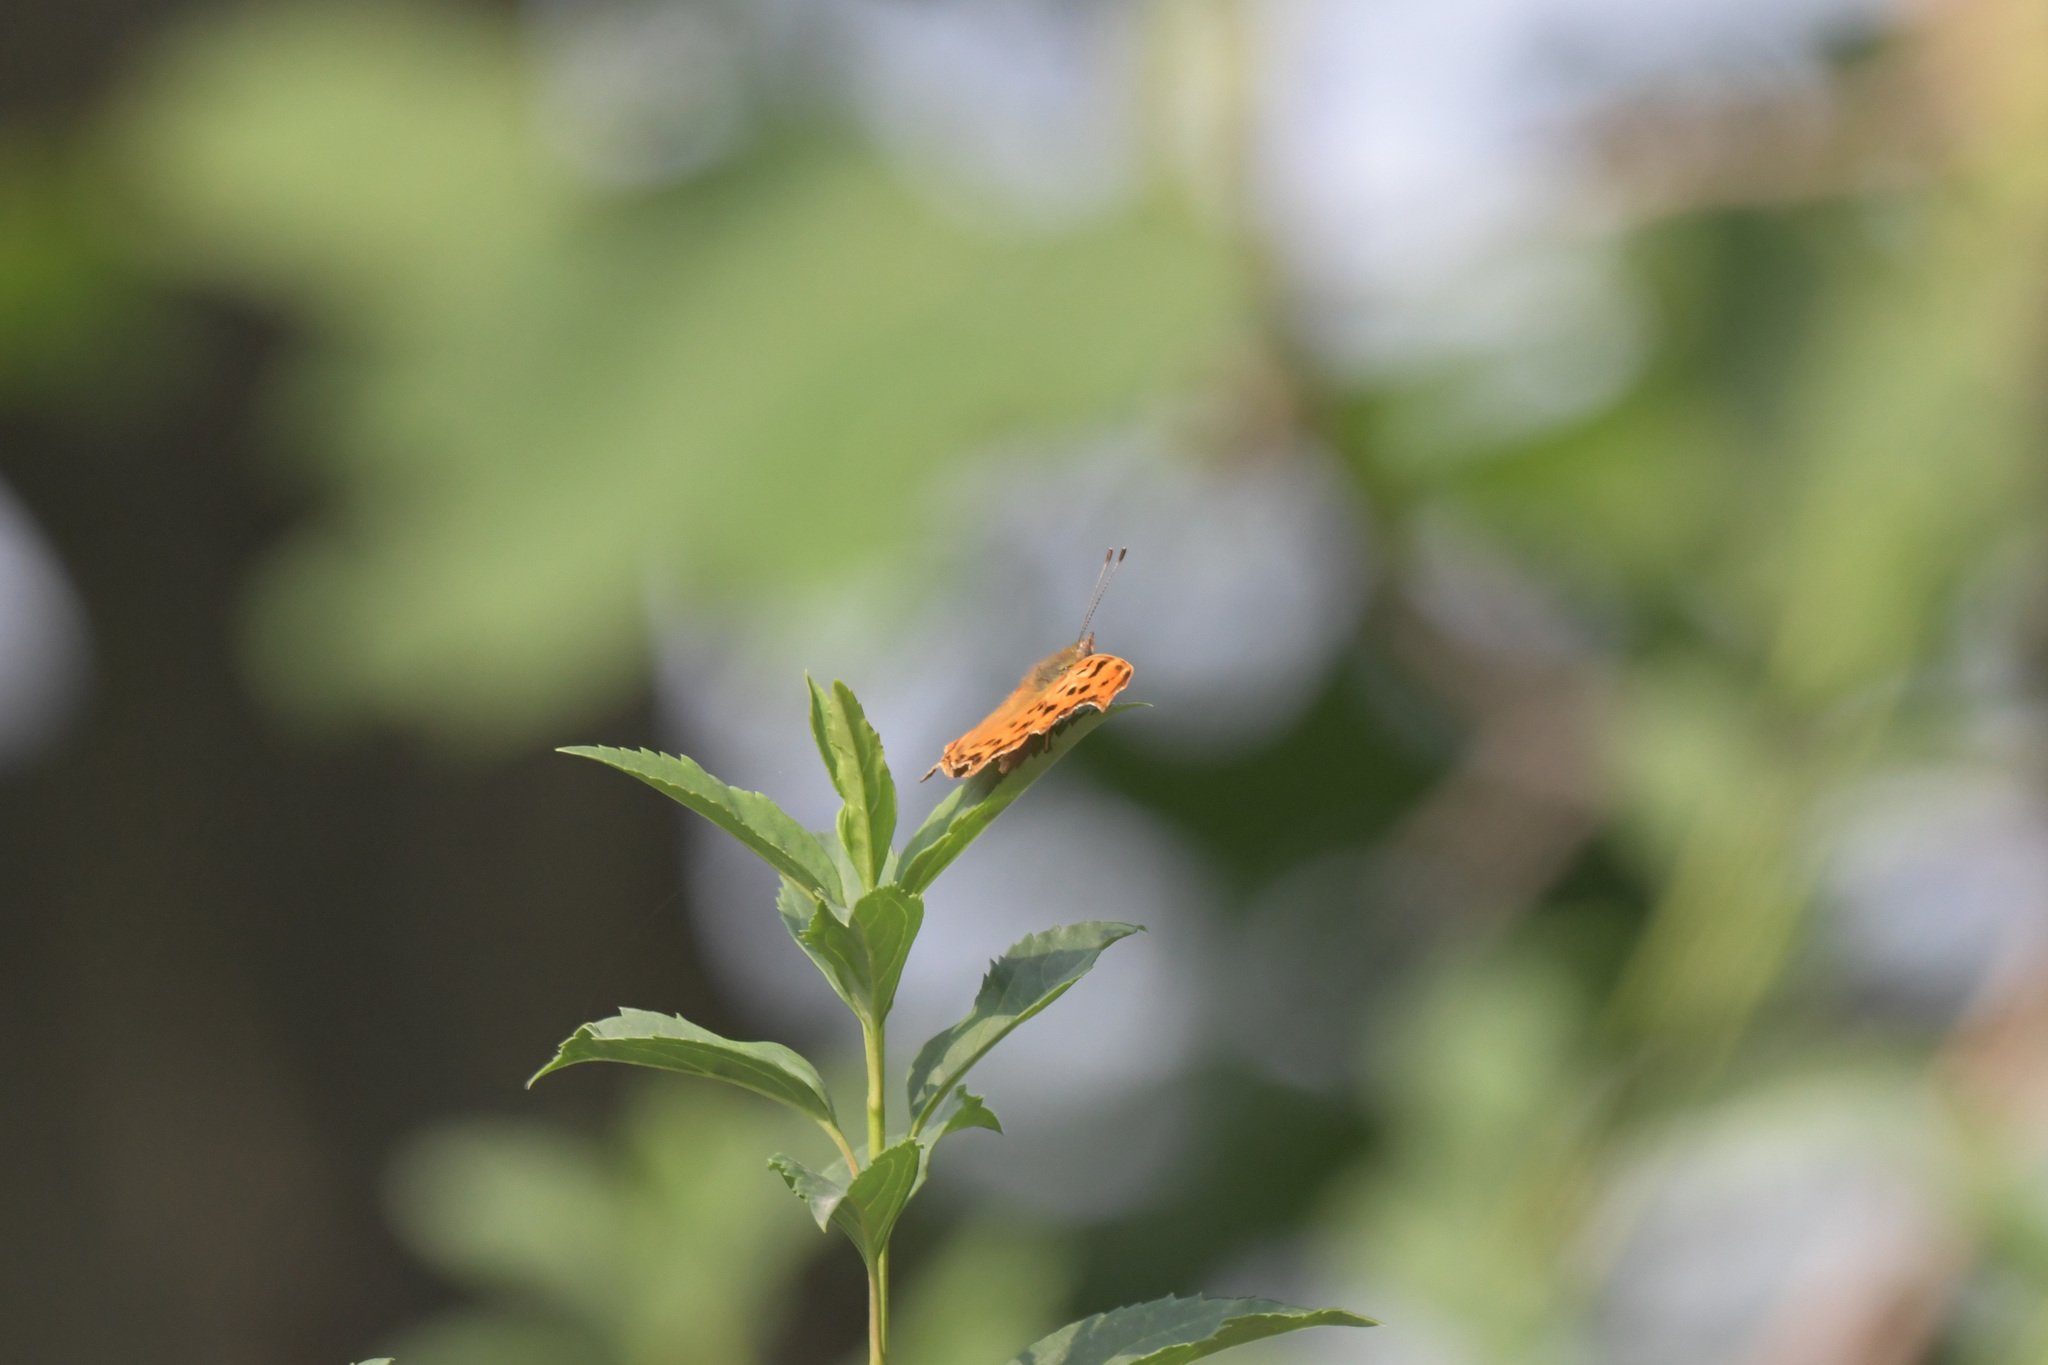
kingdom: Animalia
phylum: Arthropoda
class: Insecta
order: Lepidoptera
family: Nymphalidae
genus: Polygonia
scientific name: Polygonia c-album
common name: Comma
